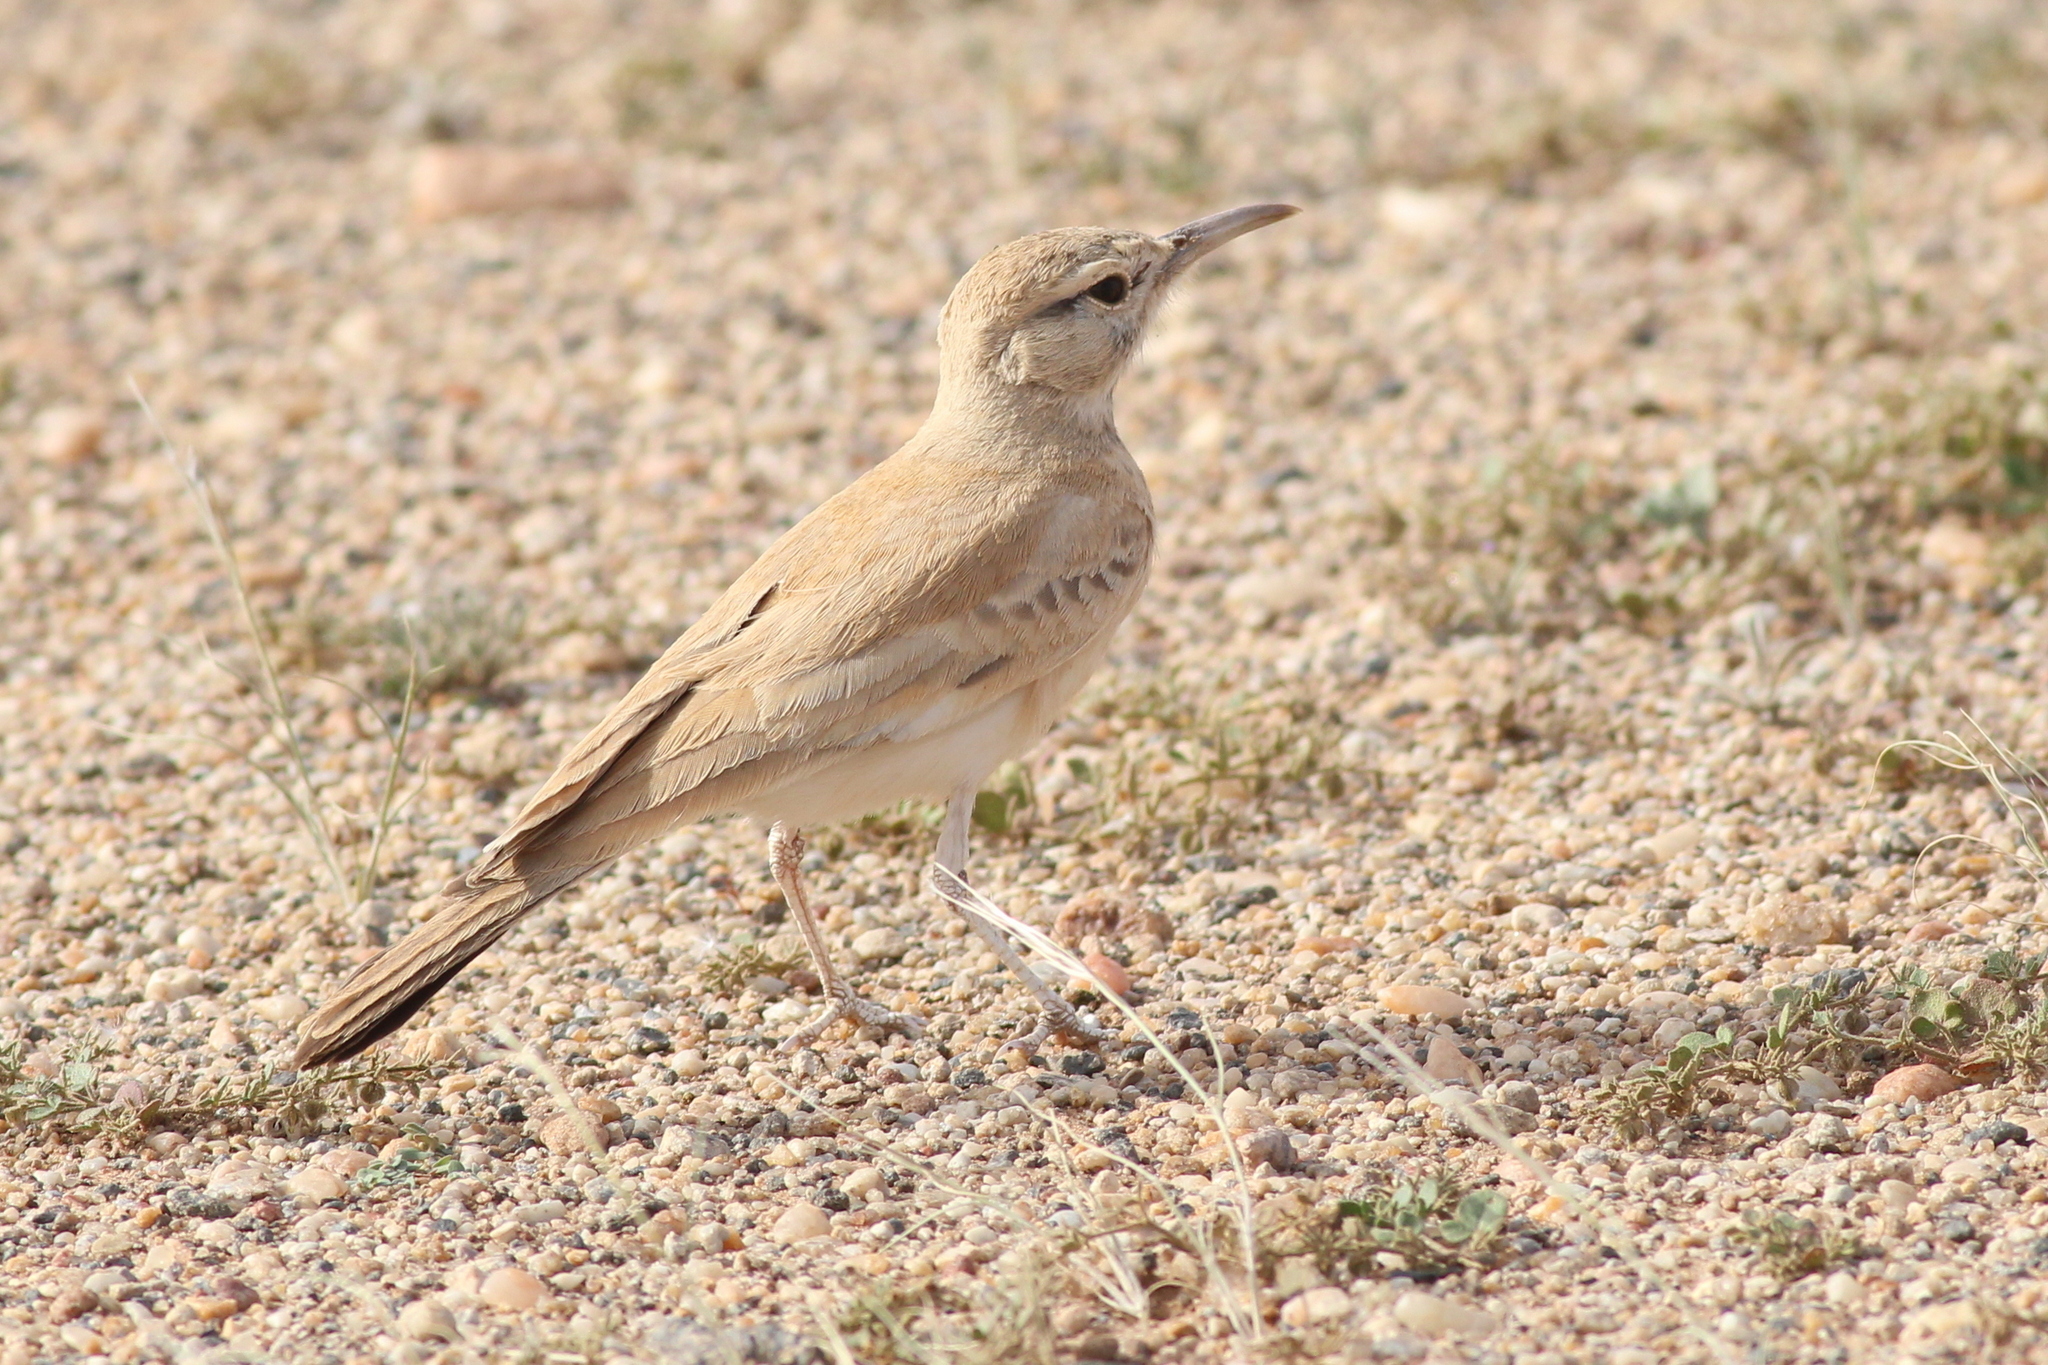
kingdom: Animalia
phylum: Chordata
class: Aves
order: Passeriformes
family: Alaudidae
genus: Alaemon
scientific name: Alaemon alaudipes
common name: Greater hoopoe-lark
